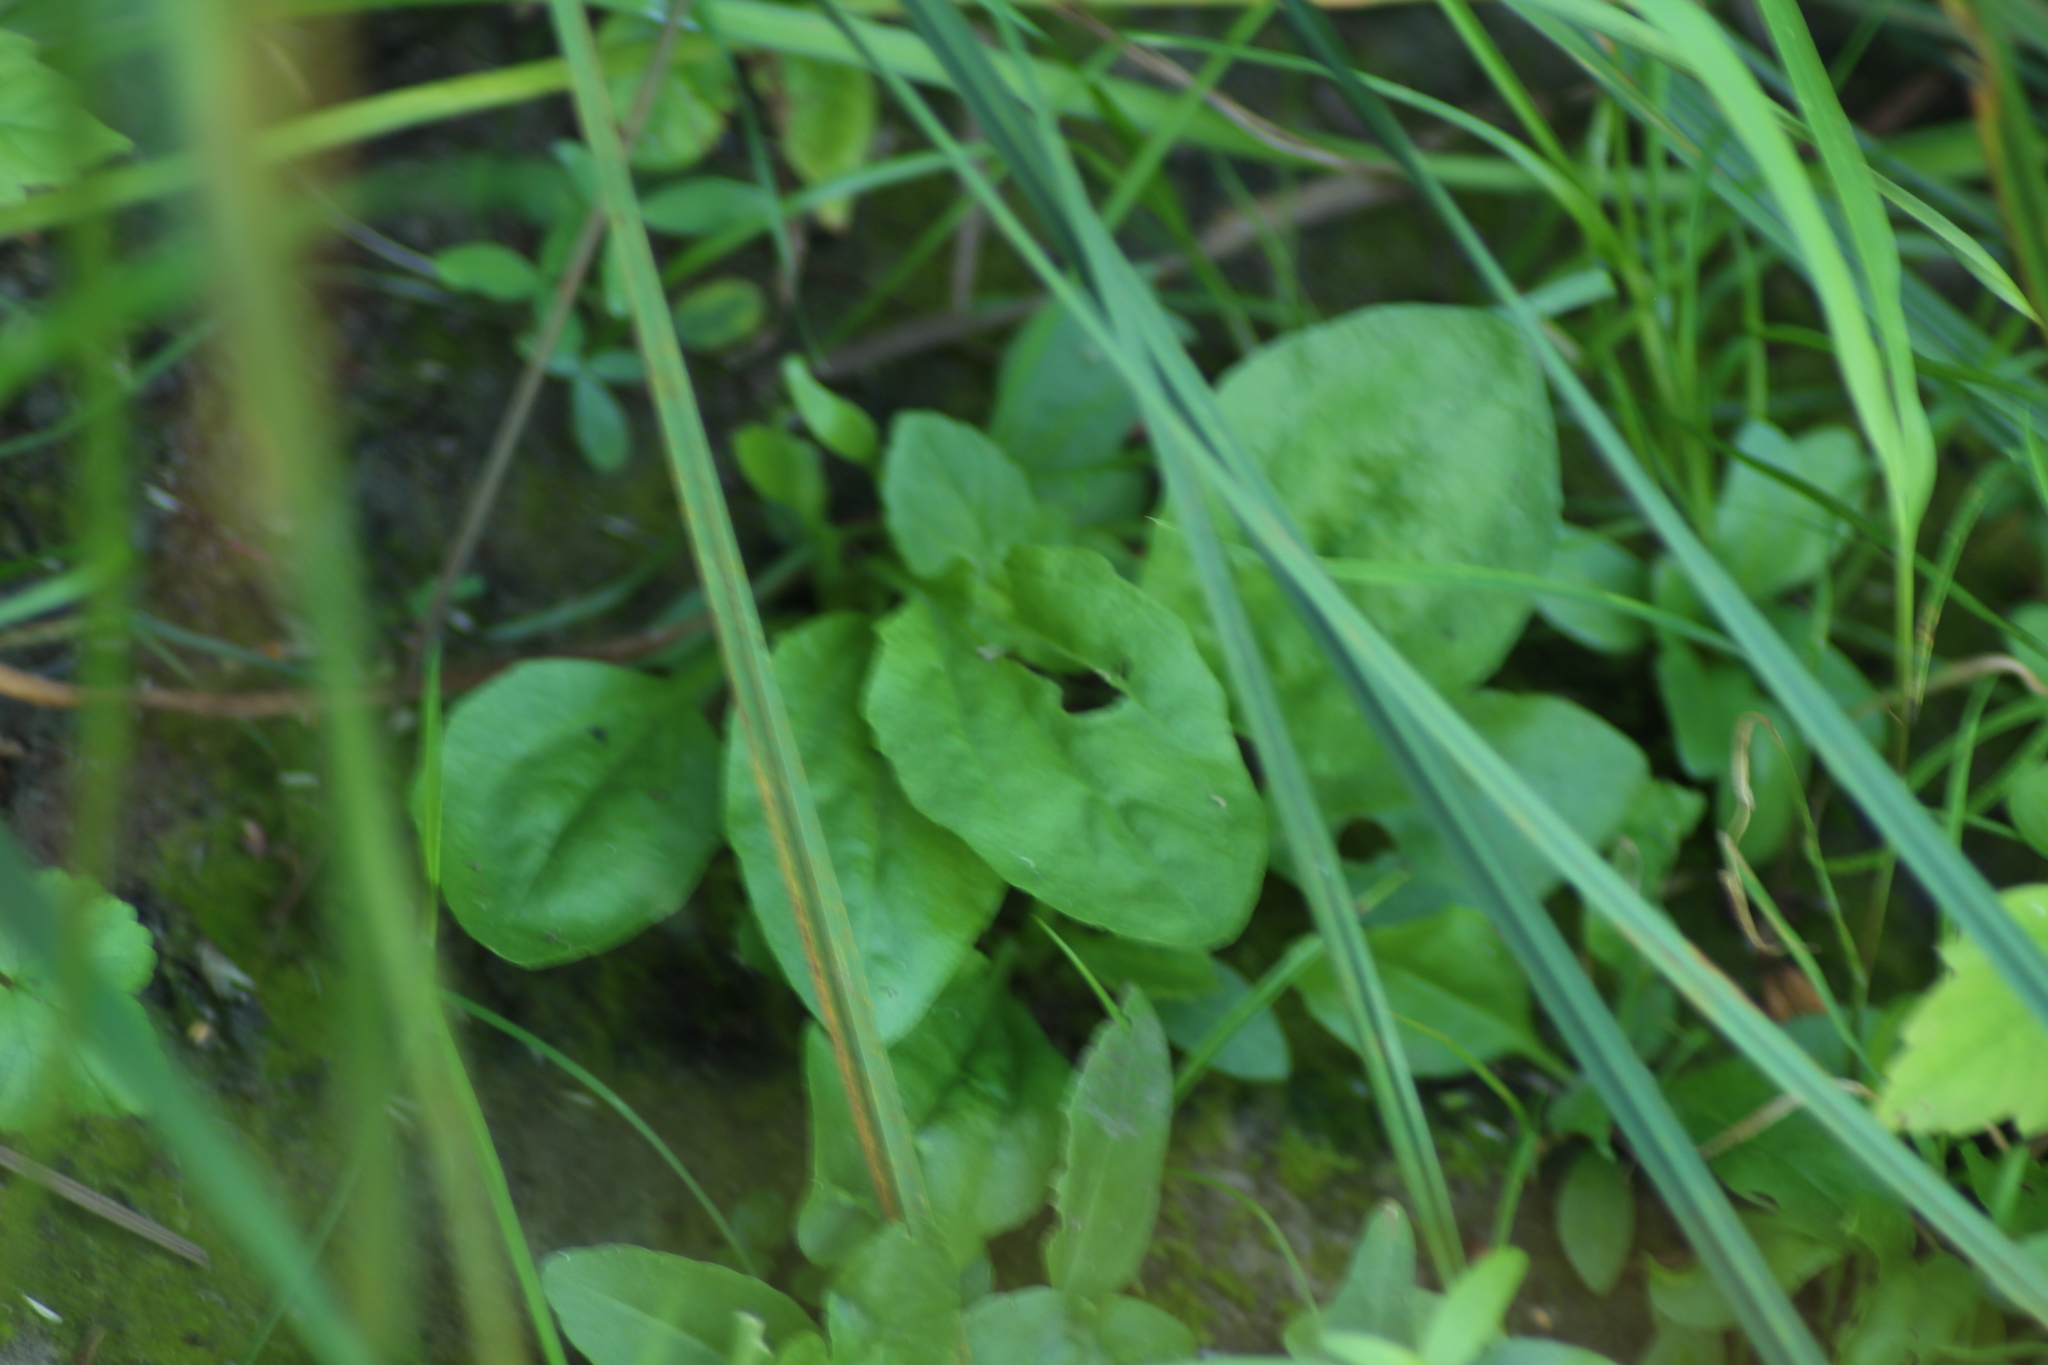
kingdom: Plantae
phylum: Tracheophyta
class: Magnoliopsida
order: Lamiales
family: Plantaginaceae
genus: Plantago
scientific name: Plantago major
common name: Common plantain
